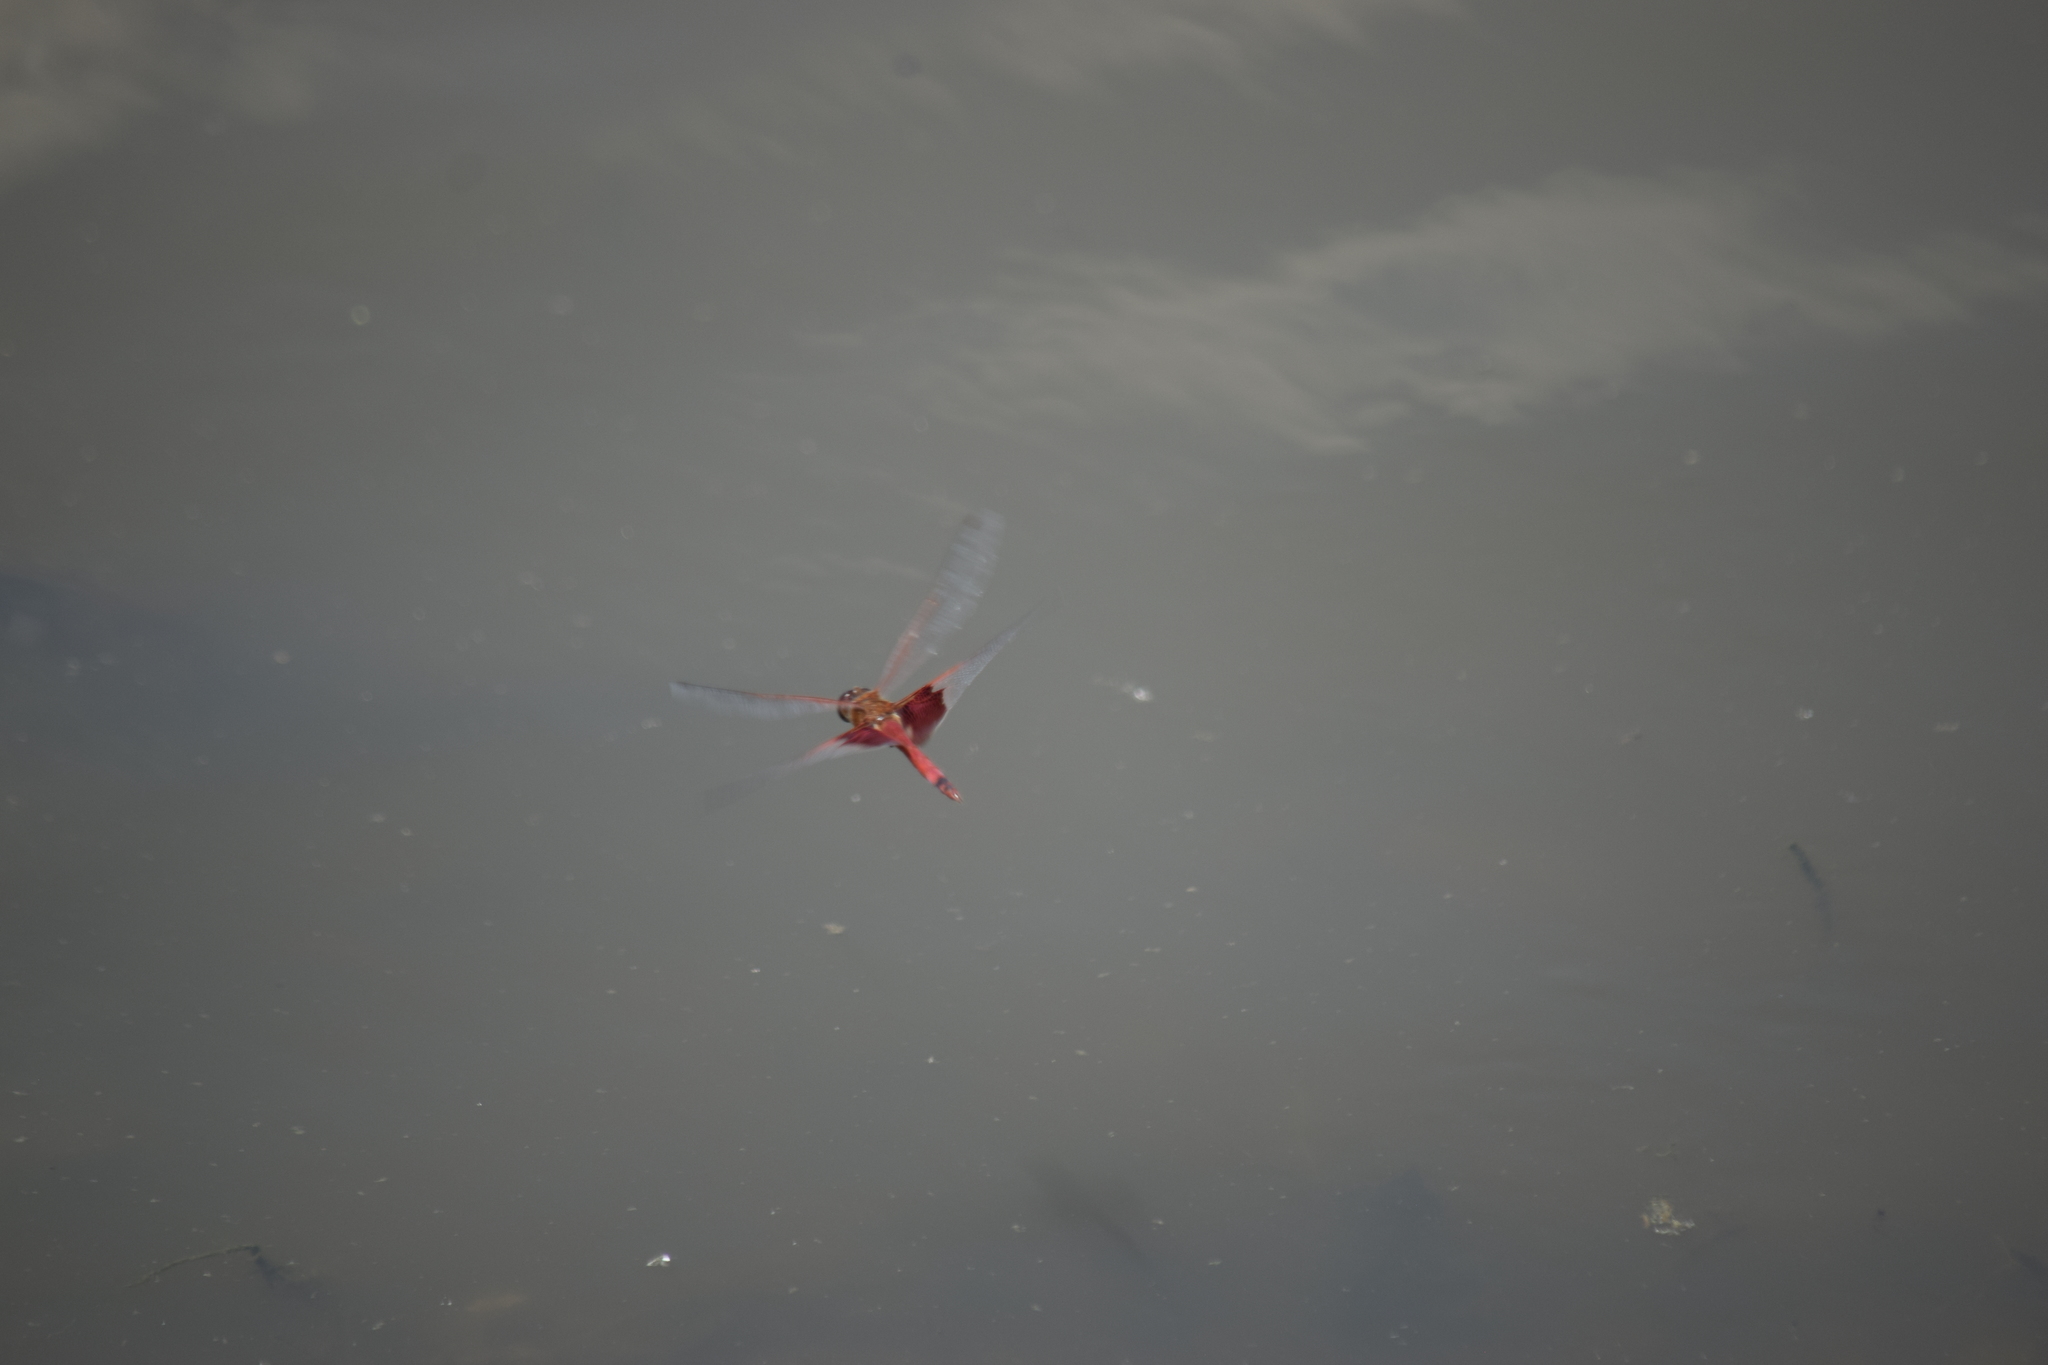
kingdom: Animalia
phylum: Arthropoda
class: Insecta
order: Odonata
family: Libellulidae
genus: Tramea
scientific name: Tramea carolina
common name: Carolina saddlebags
